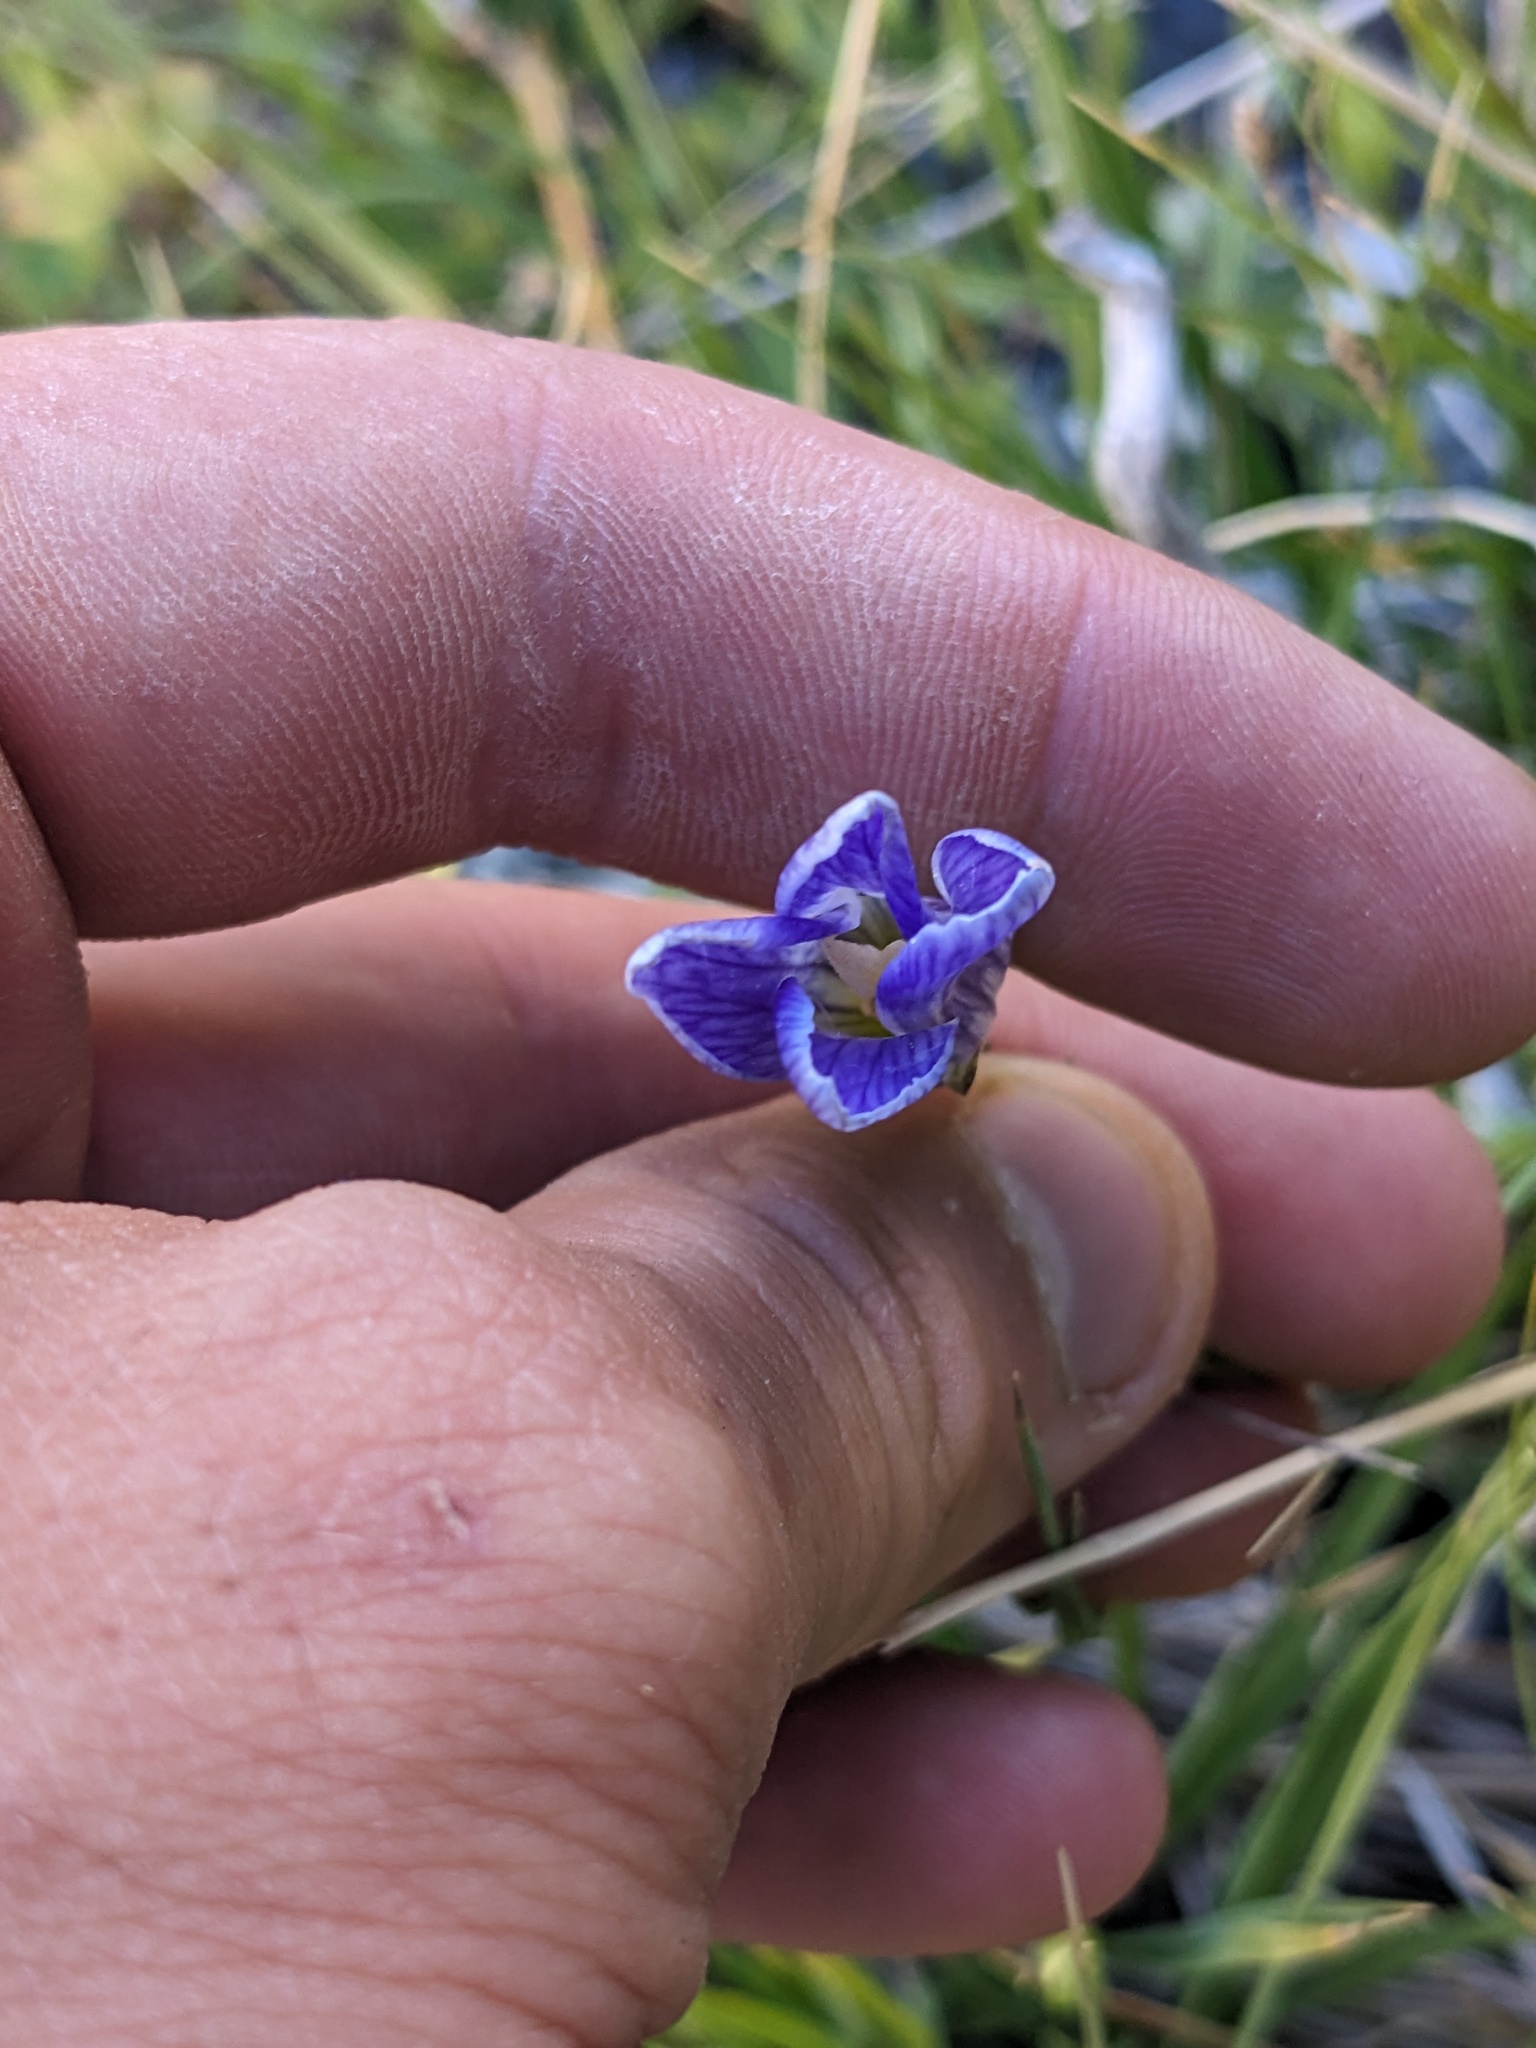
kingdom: Plantae
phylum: Tracheophyta
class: Magnoliopsida
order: Gentianales
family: Gentianaceae
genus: Gentianopsis
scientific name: Gentianopsis holopetala
